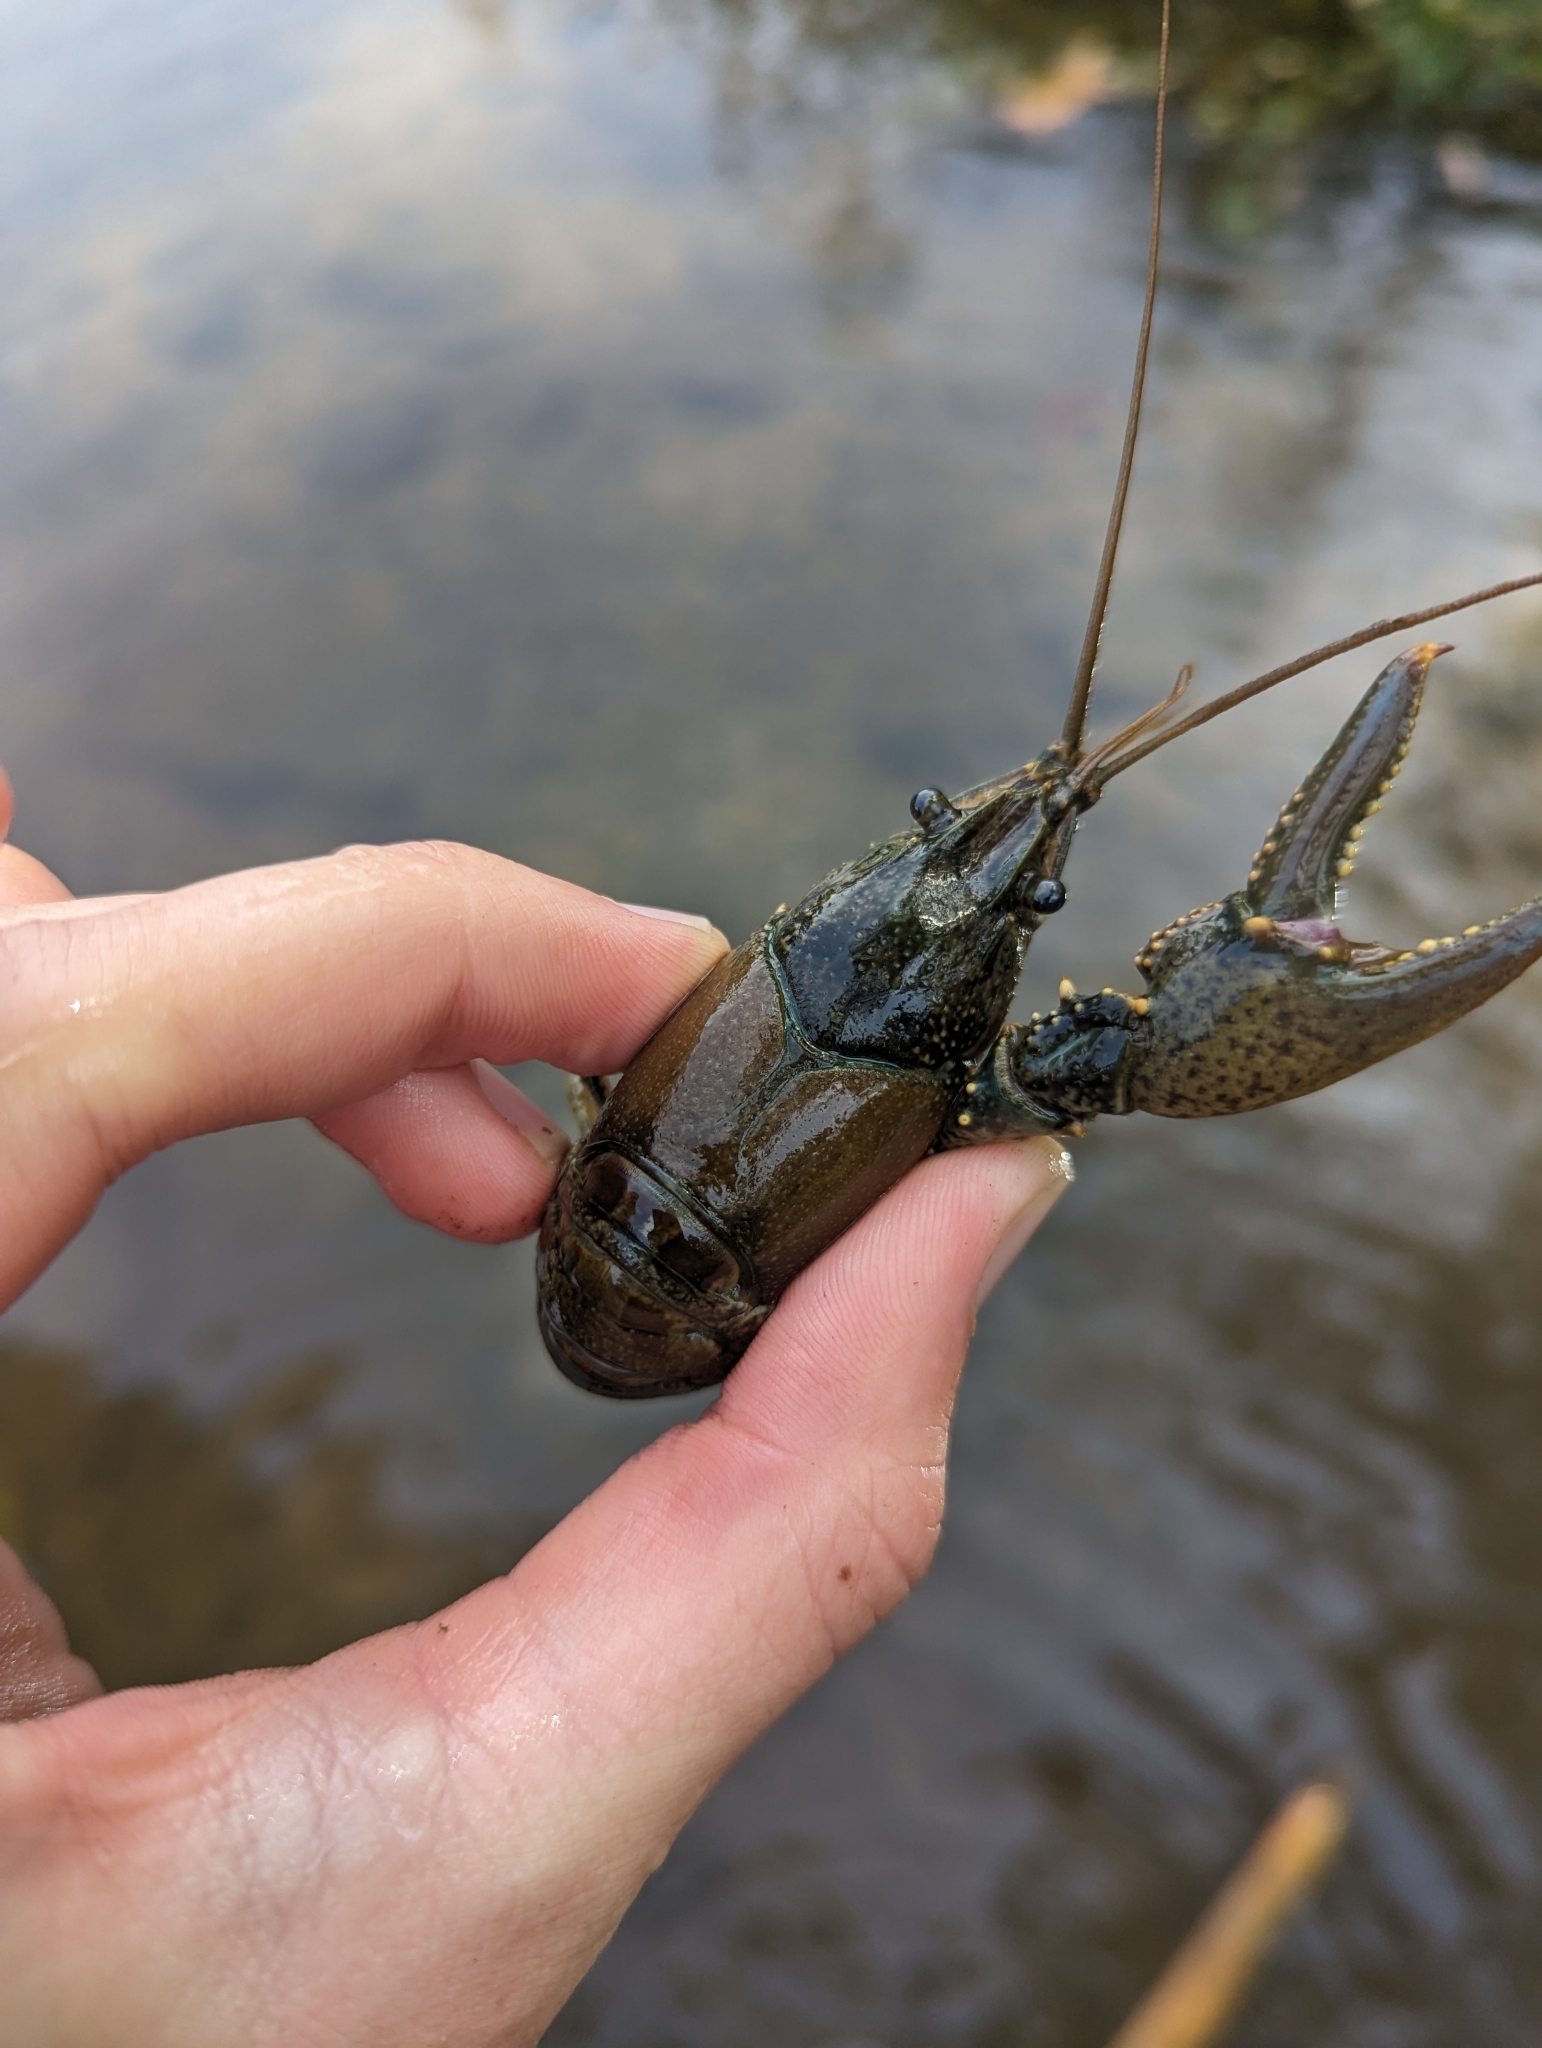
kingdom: Animalia
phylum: Arthropoda
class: Malacostraca
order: Decapoda
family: Cambaridae
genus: Faxonius
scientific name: Faxonius virilis
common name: Virile crayfish
